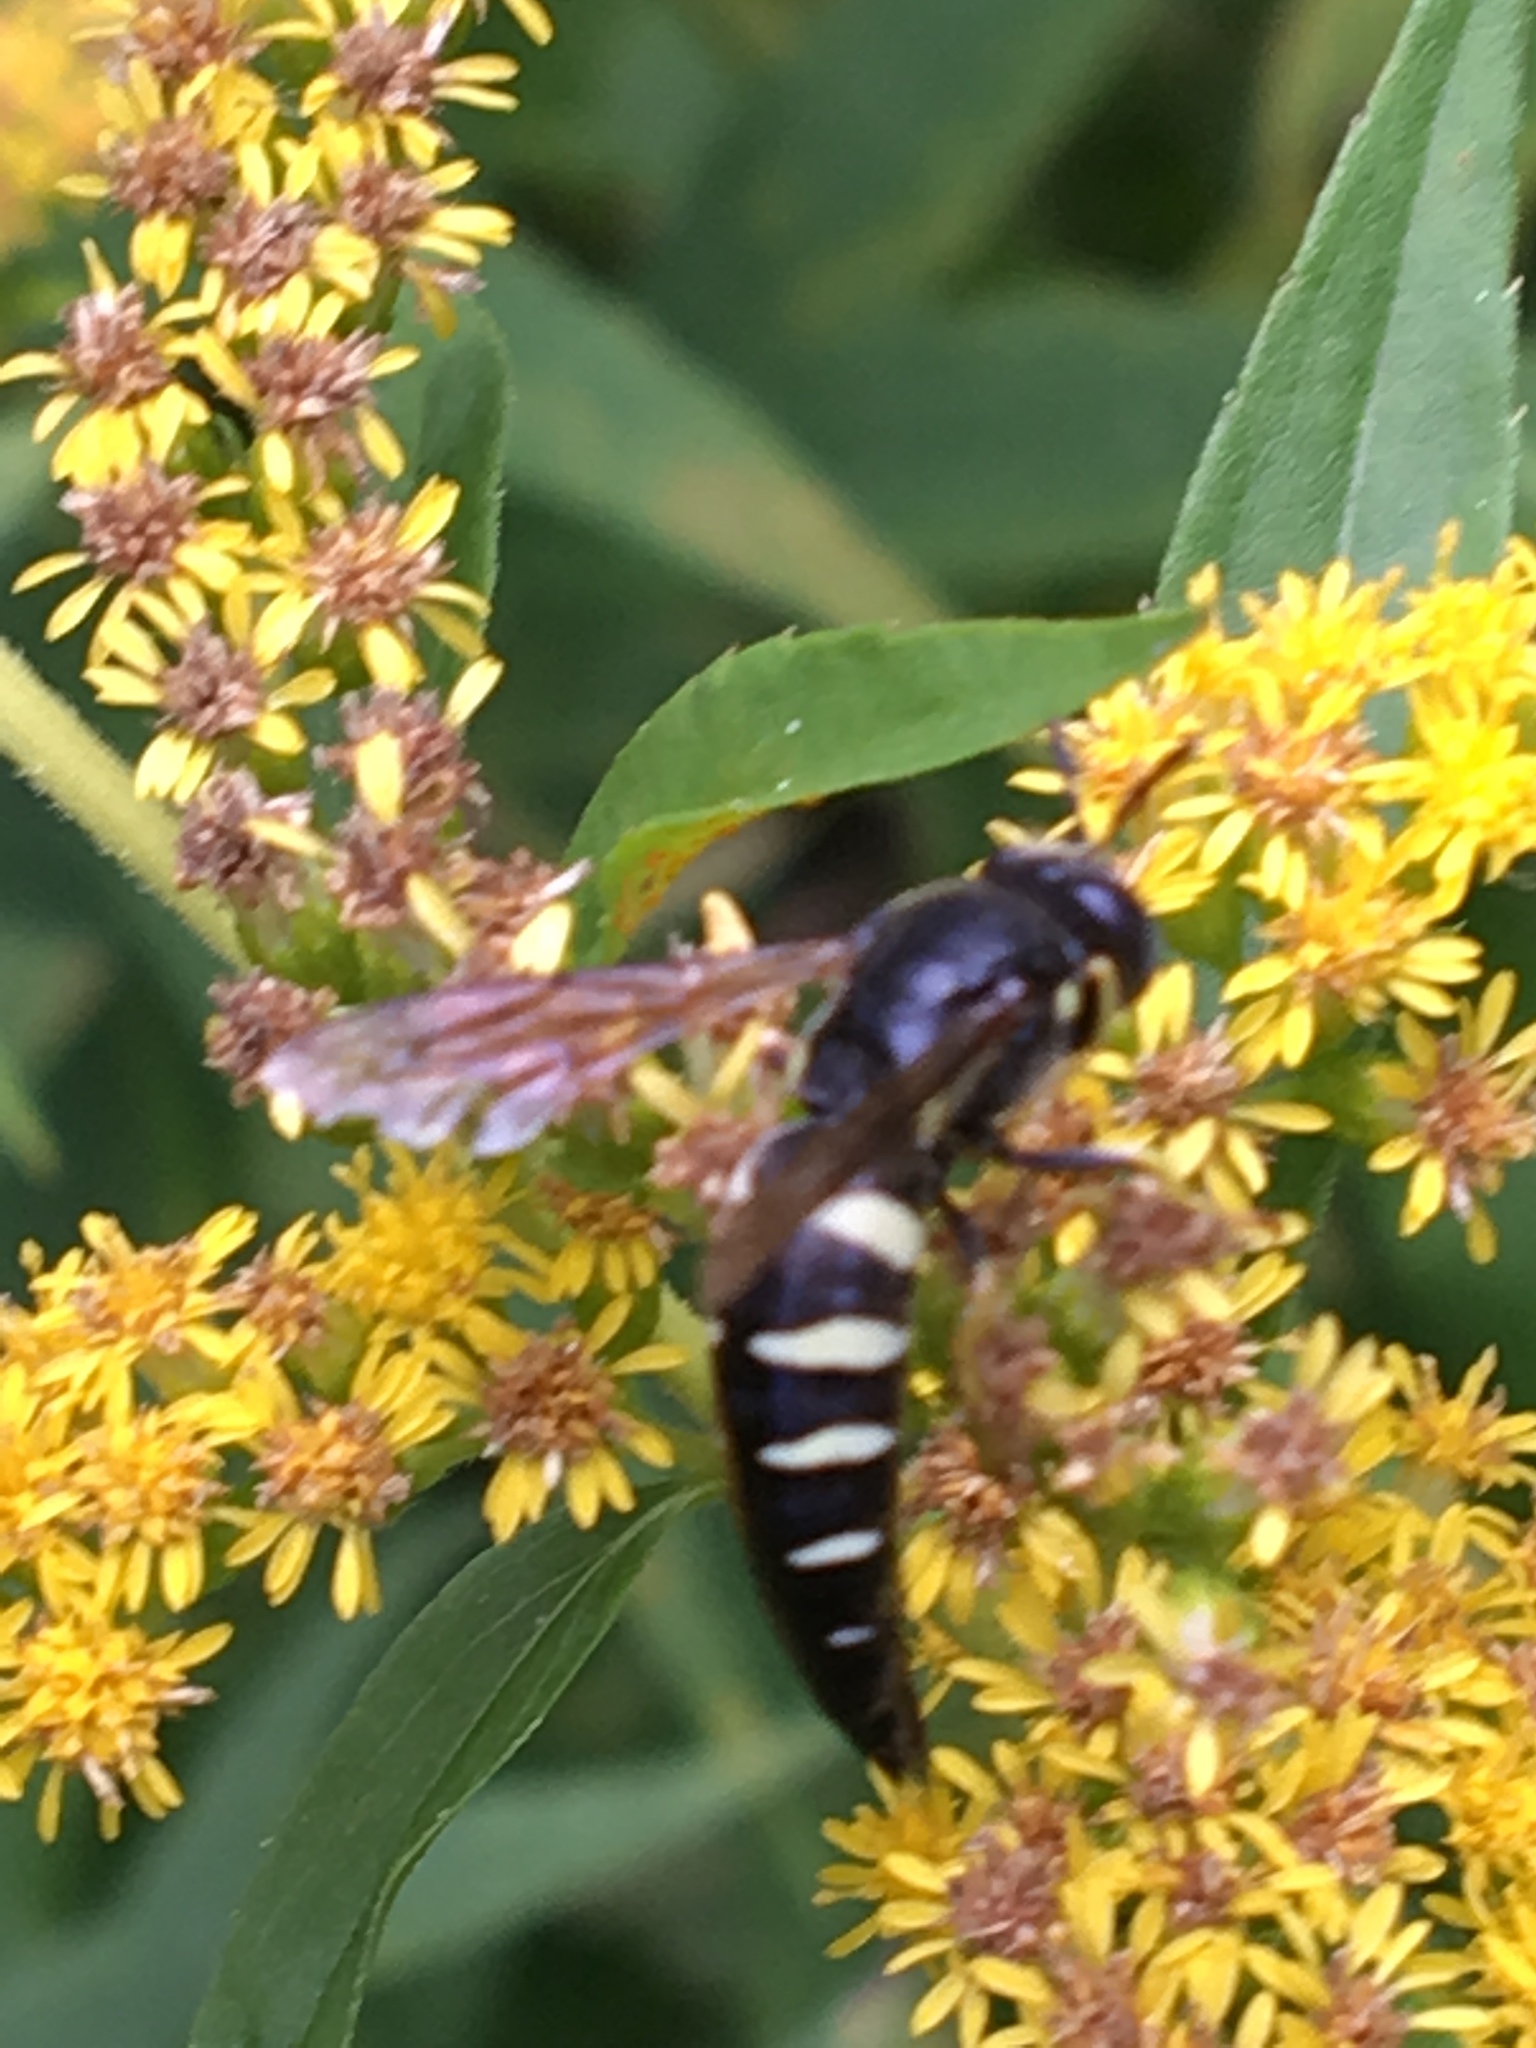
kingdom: Animalia
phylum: Arthropoda
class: Insecta
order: Hymenoptera
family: Crabronidae
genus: Bicyrtes
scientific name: Bicyrtes quadrifasciatus
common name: Four-banded stink bug hunter wasp
